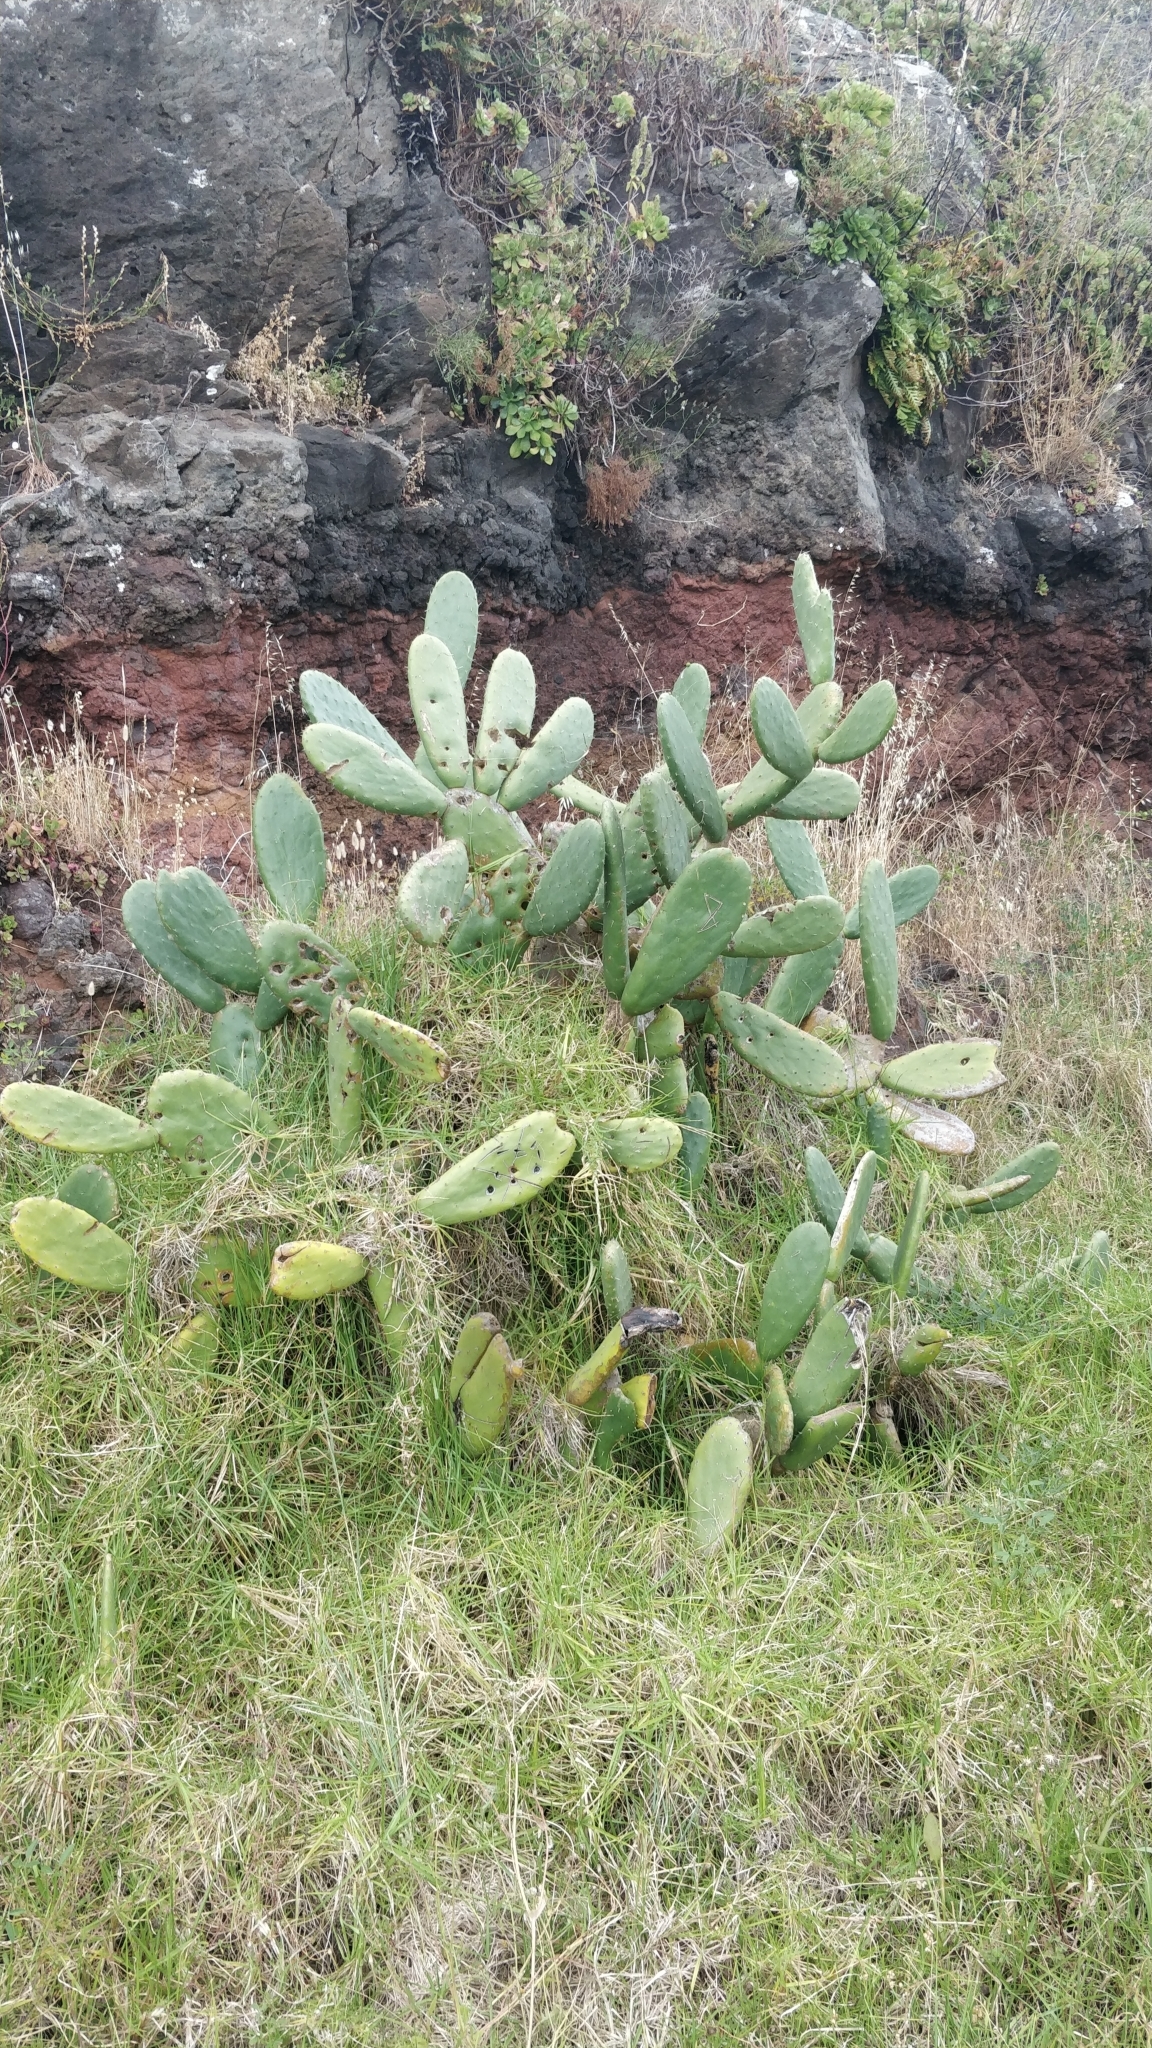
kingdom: Plantae
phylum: Tracheophyta
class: Magnoliopsida
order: Caryophyllales
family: Cactaceae
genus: Opuntia
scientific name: Opuntia ficus-indica
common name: Barbary fig
